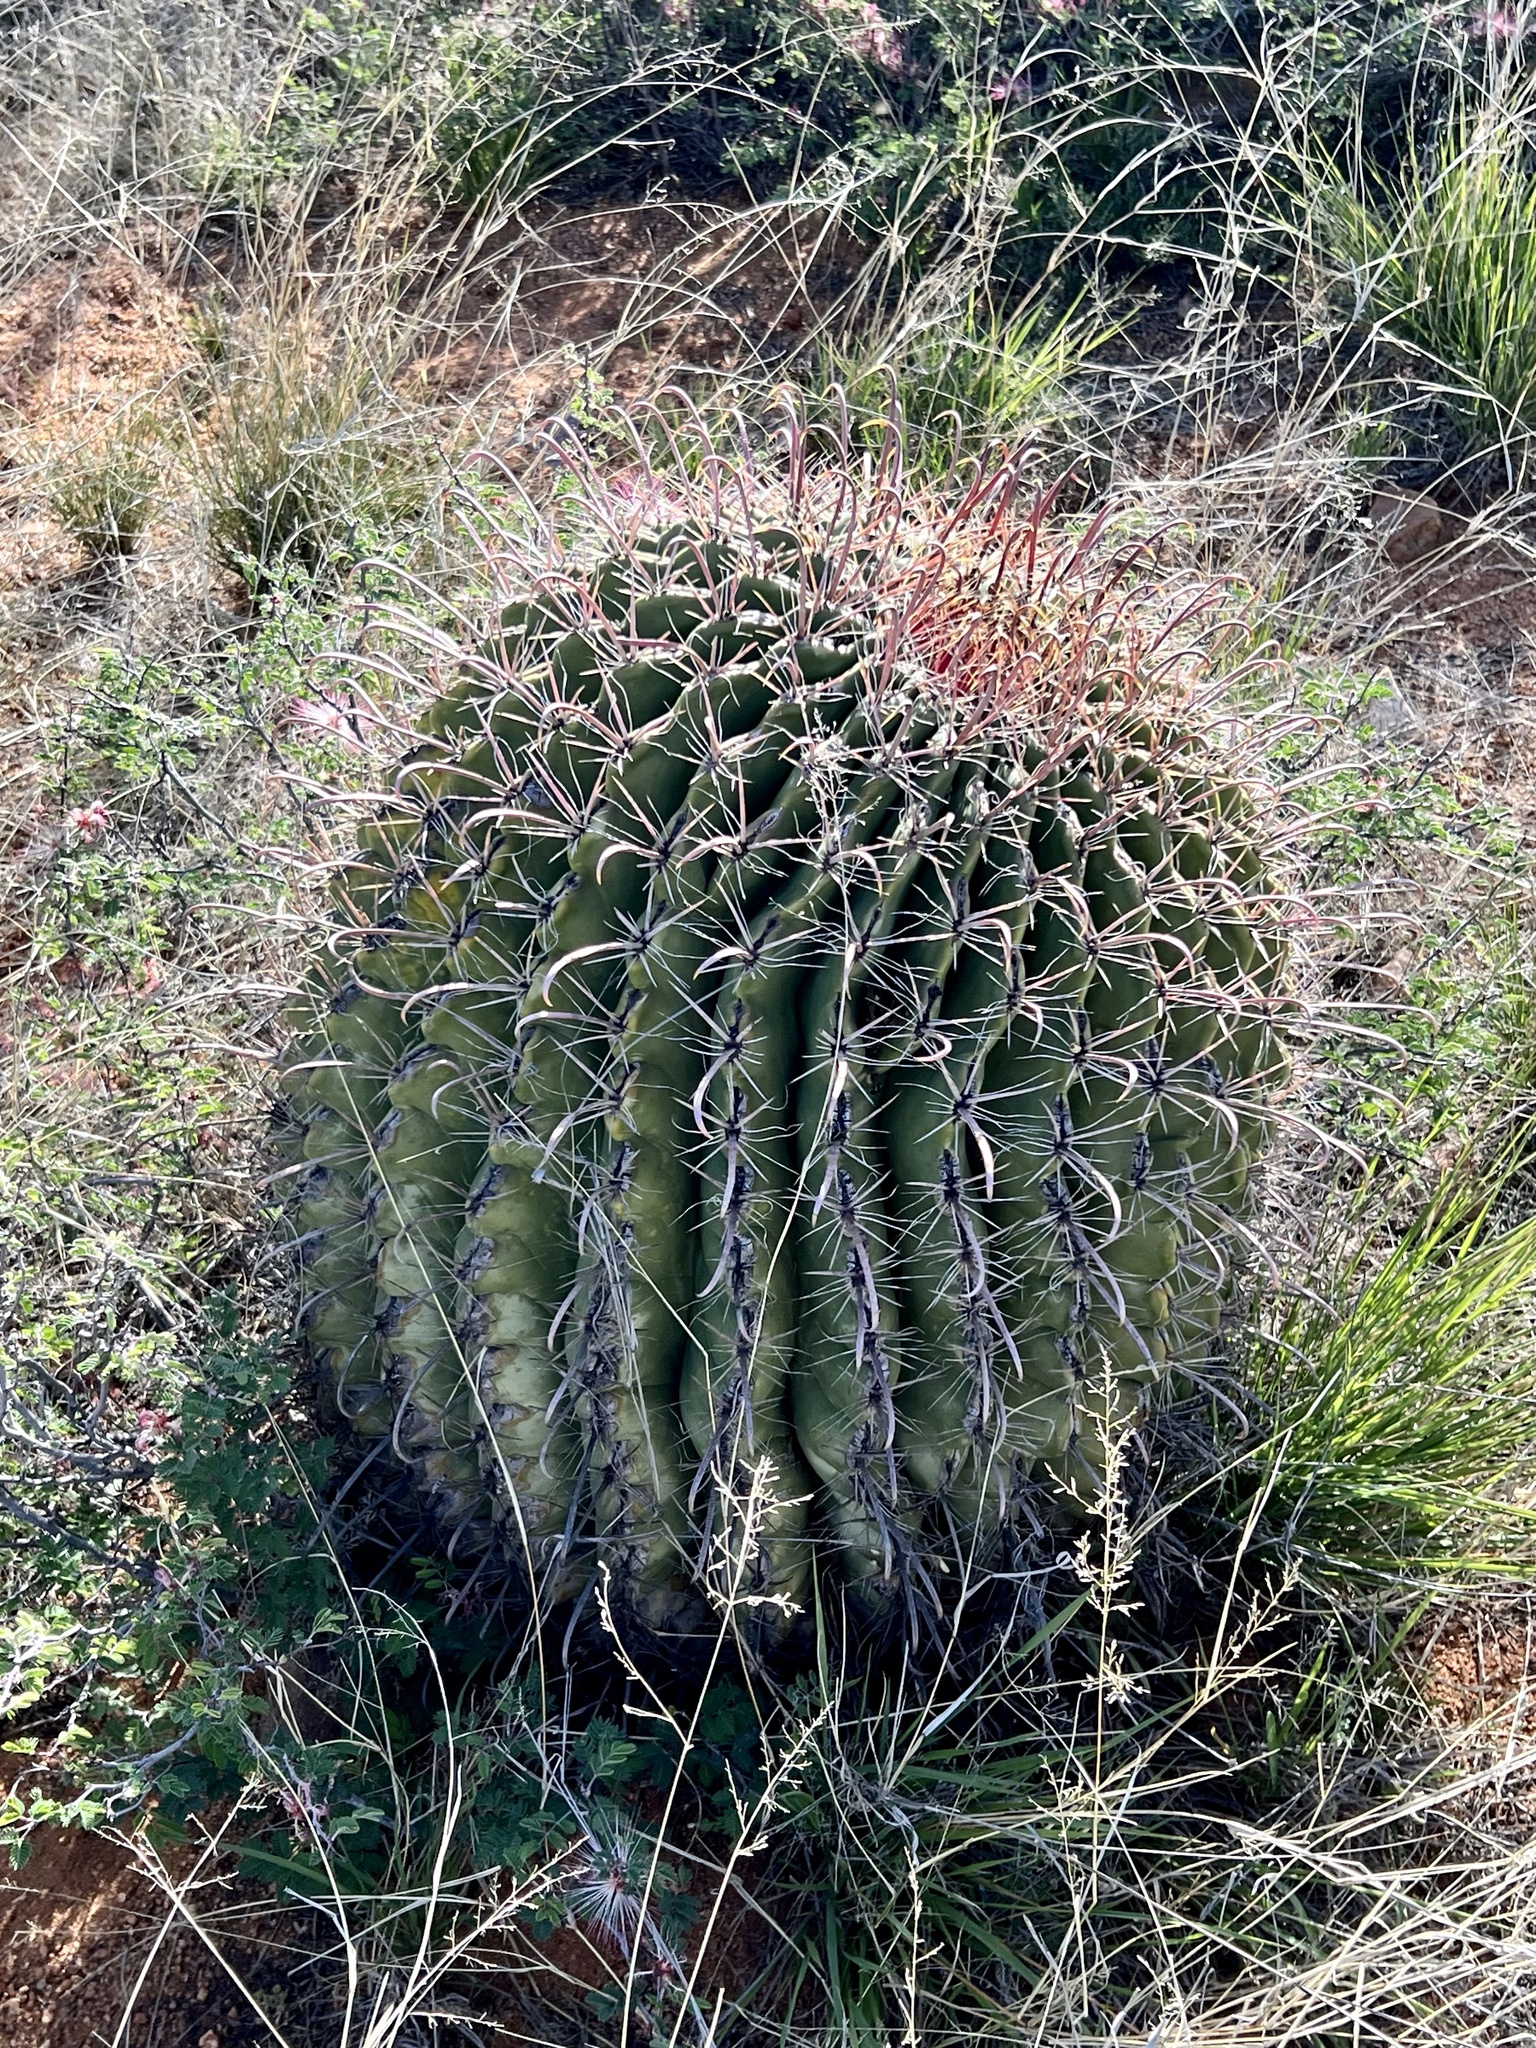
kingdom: Plantae
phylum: Tracheophyta
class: Magnoliopsida
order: Caryophyllales
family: Cactaceae
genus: Ferocactus
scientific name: Ferocactus wislizeni
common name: Candy barrel cactus
